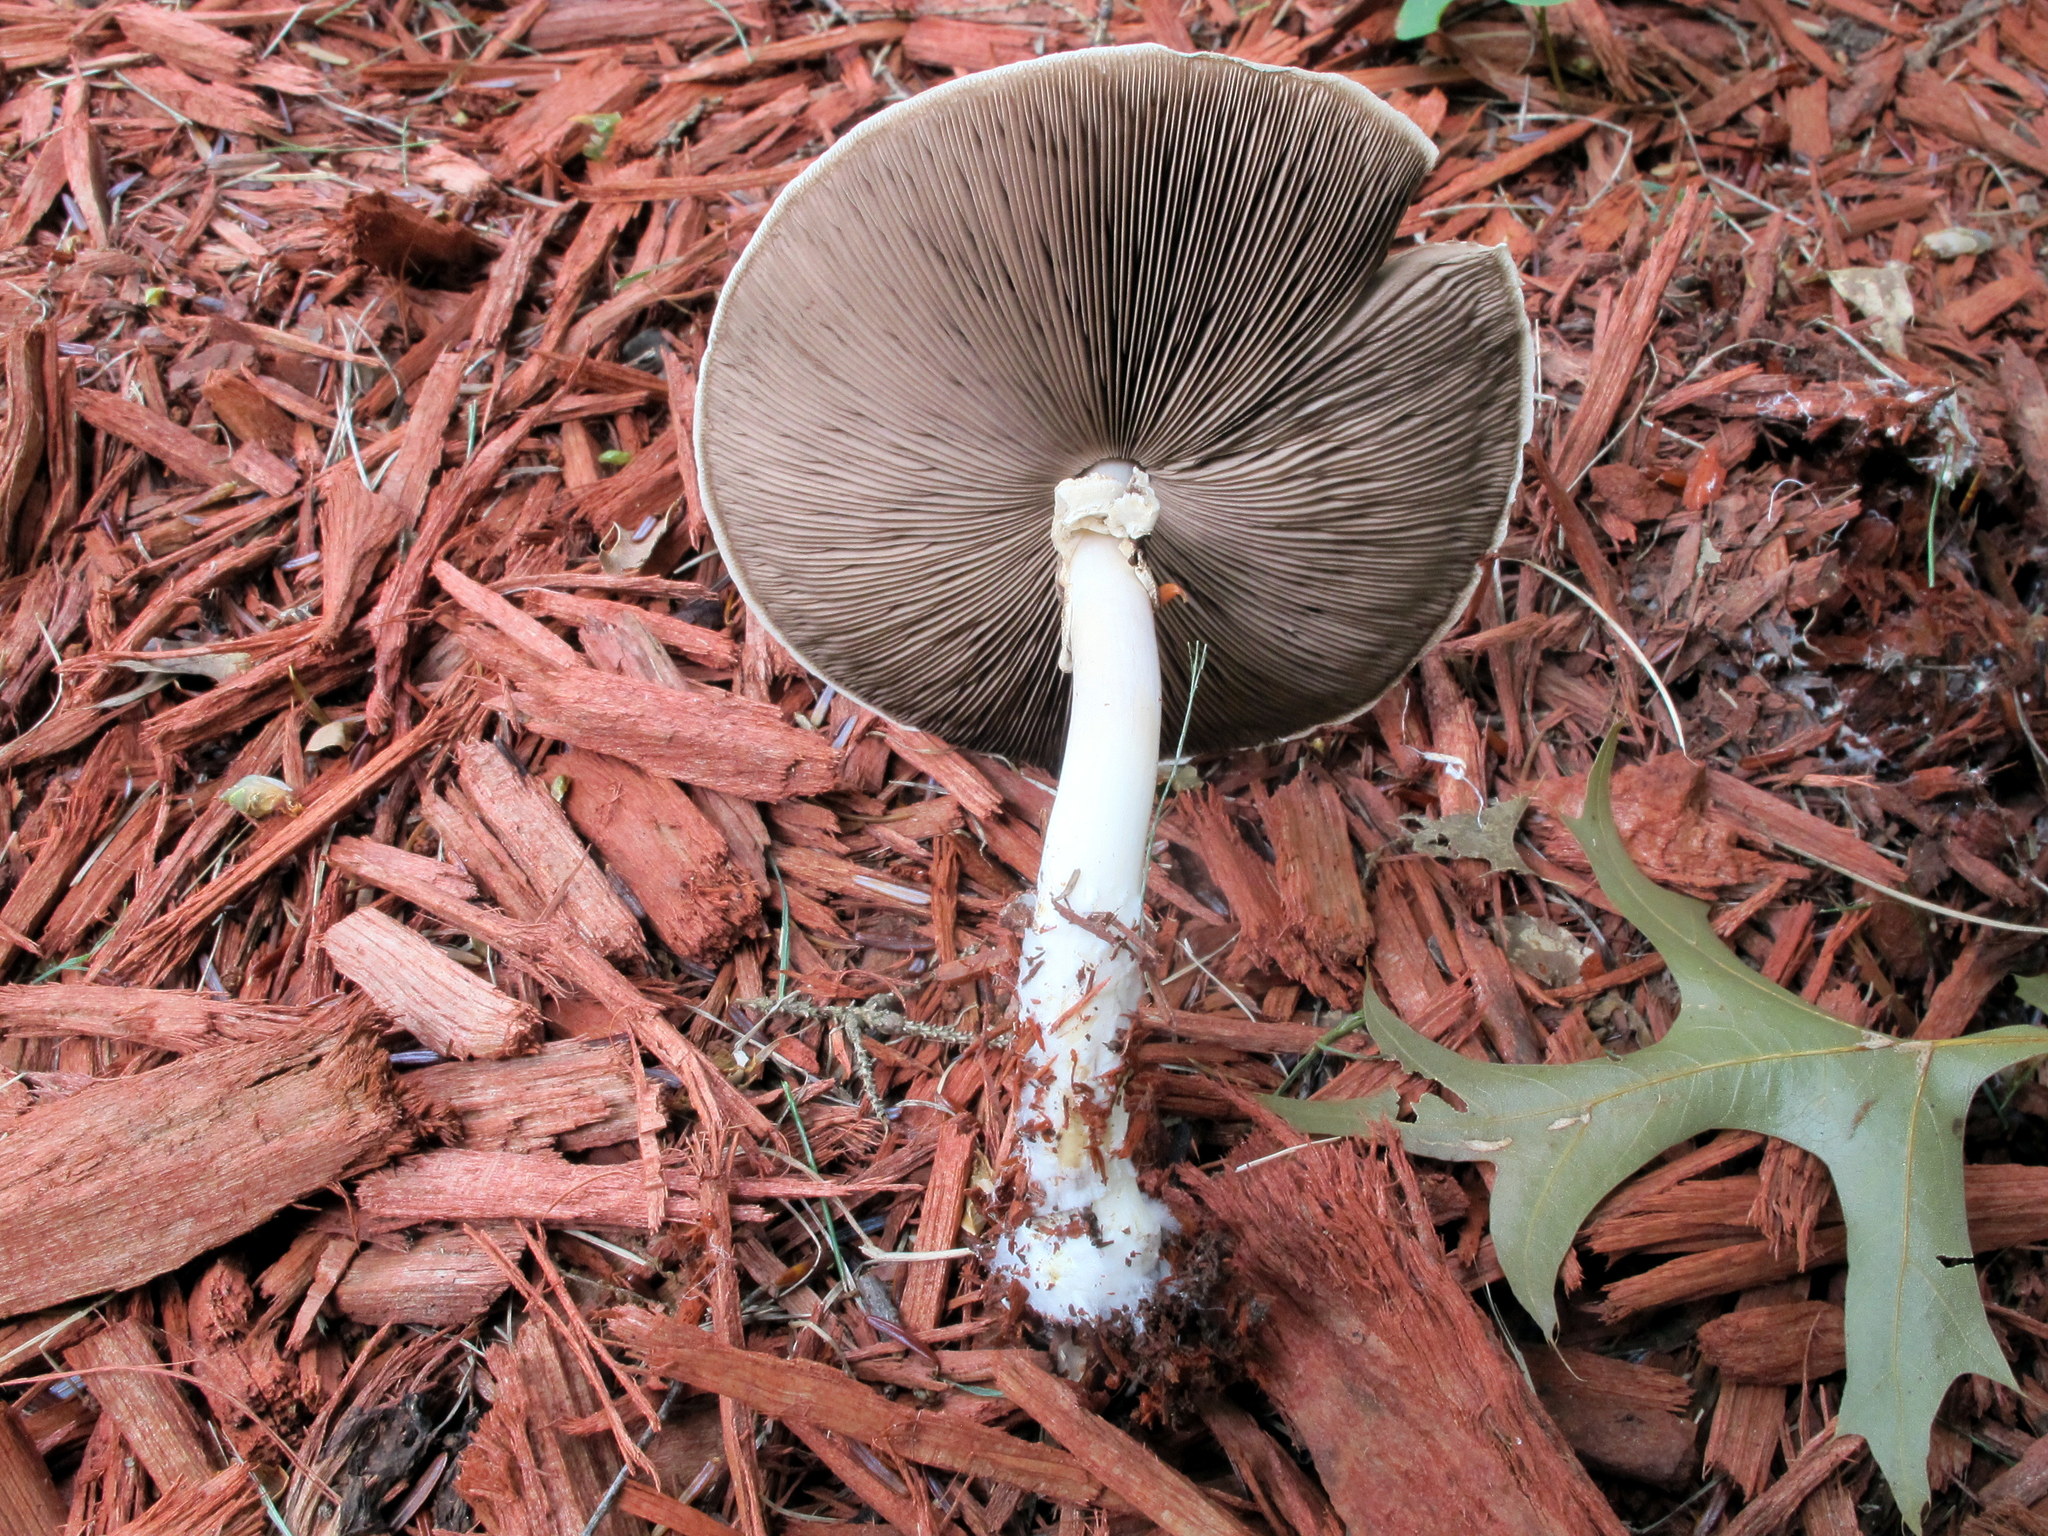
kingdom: Fungi
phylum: Basidiomycota
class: Agaricomycetes
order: Agaricales
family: Agaricaceae
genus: Agaricus
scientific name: Agaricus placomyces
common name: Inky mushroom
